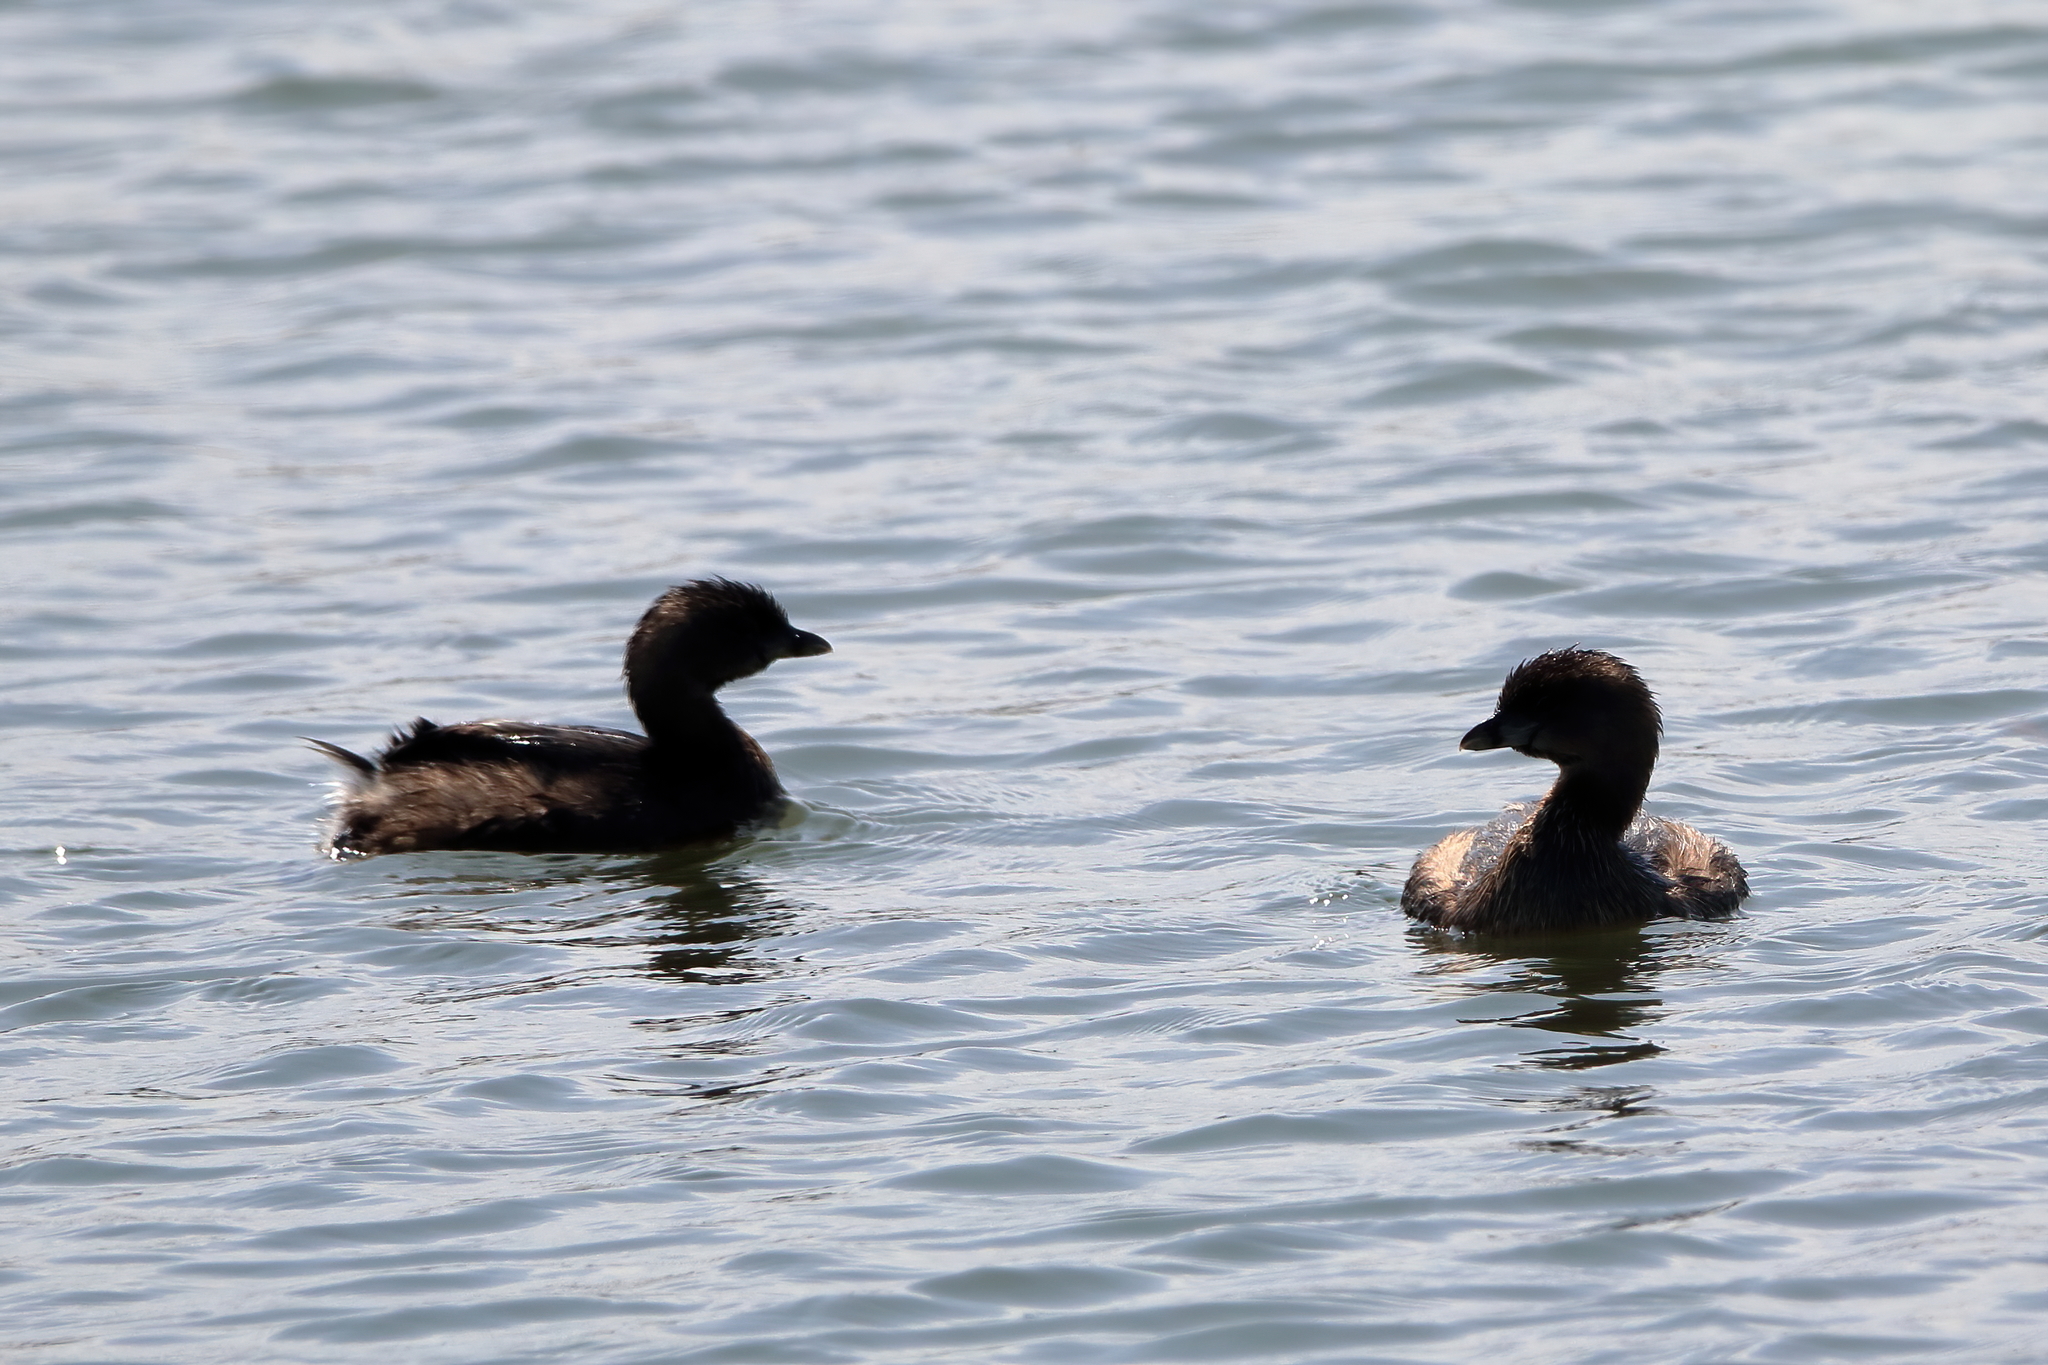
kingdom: Animalia
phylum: Chordata
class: Aves
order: Podicipediformes
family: Podicipedidae
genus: Podilymbus
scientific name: Podilymbus podiceps
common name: Pied-billed grebe
